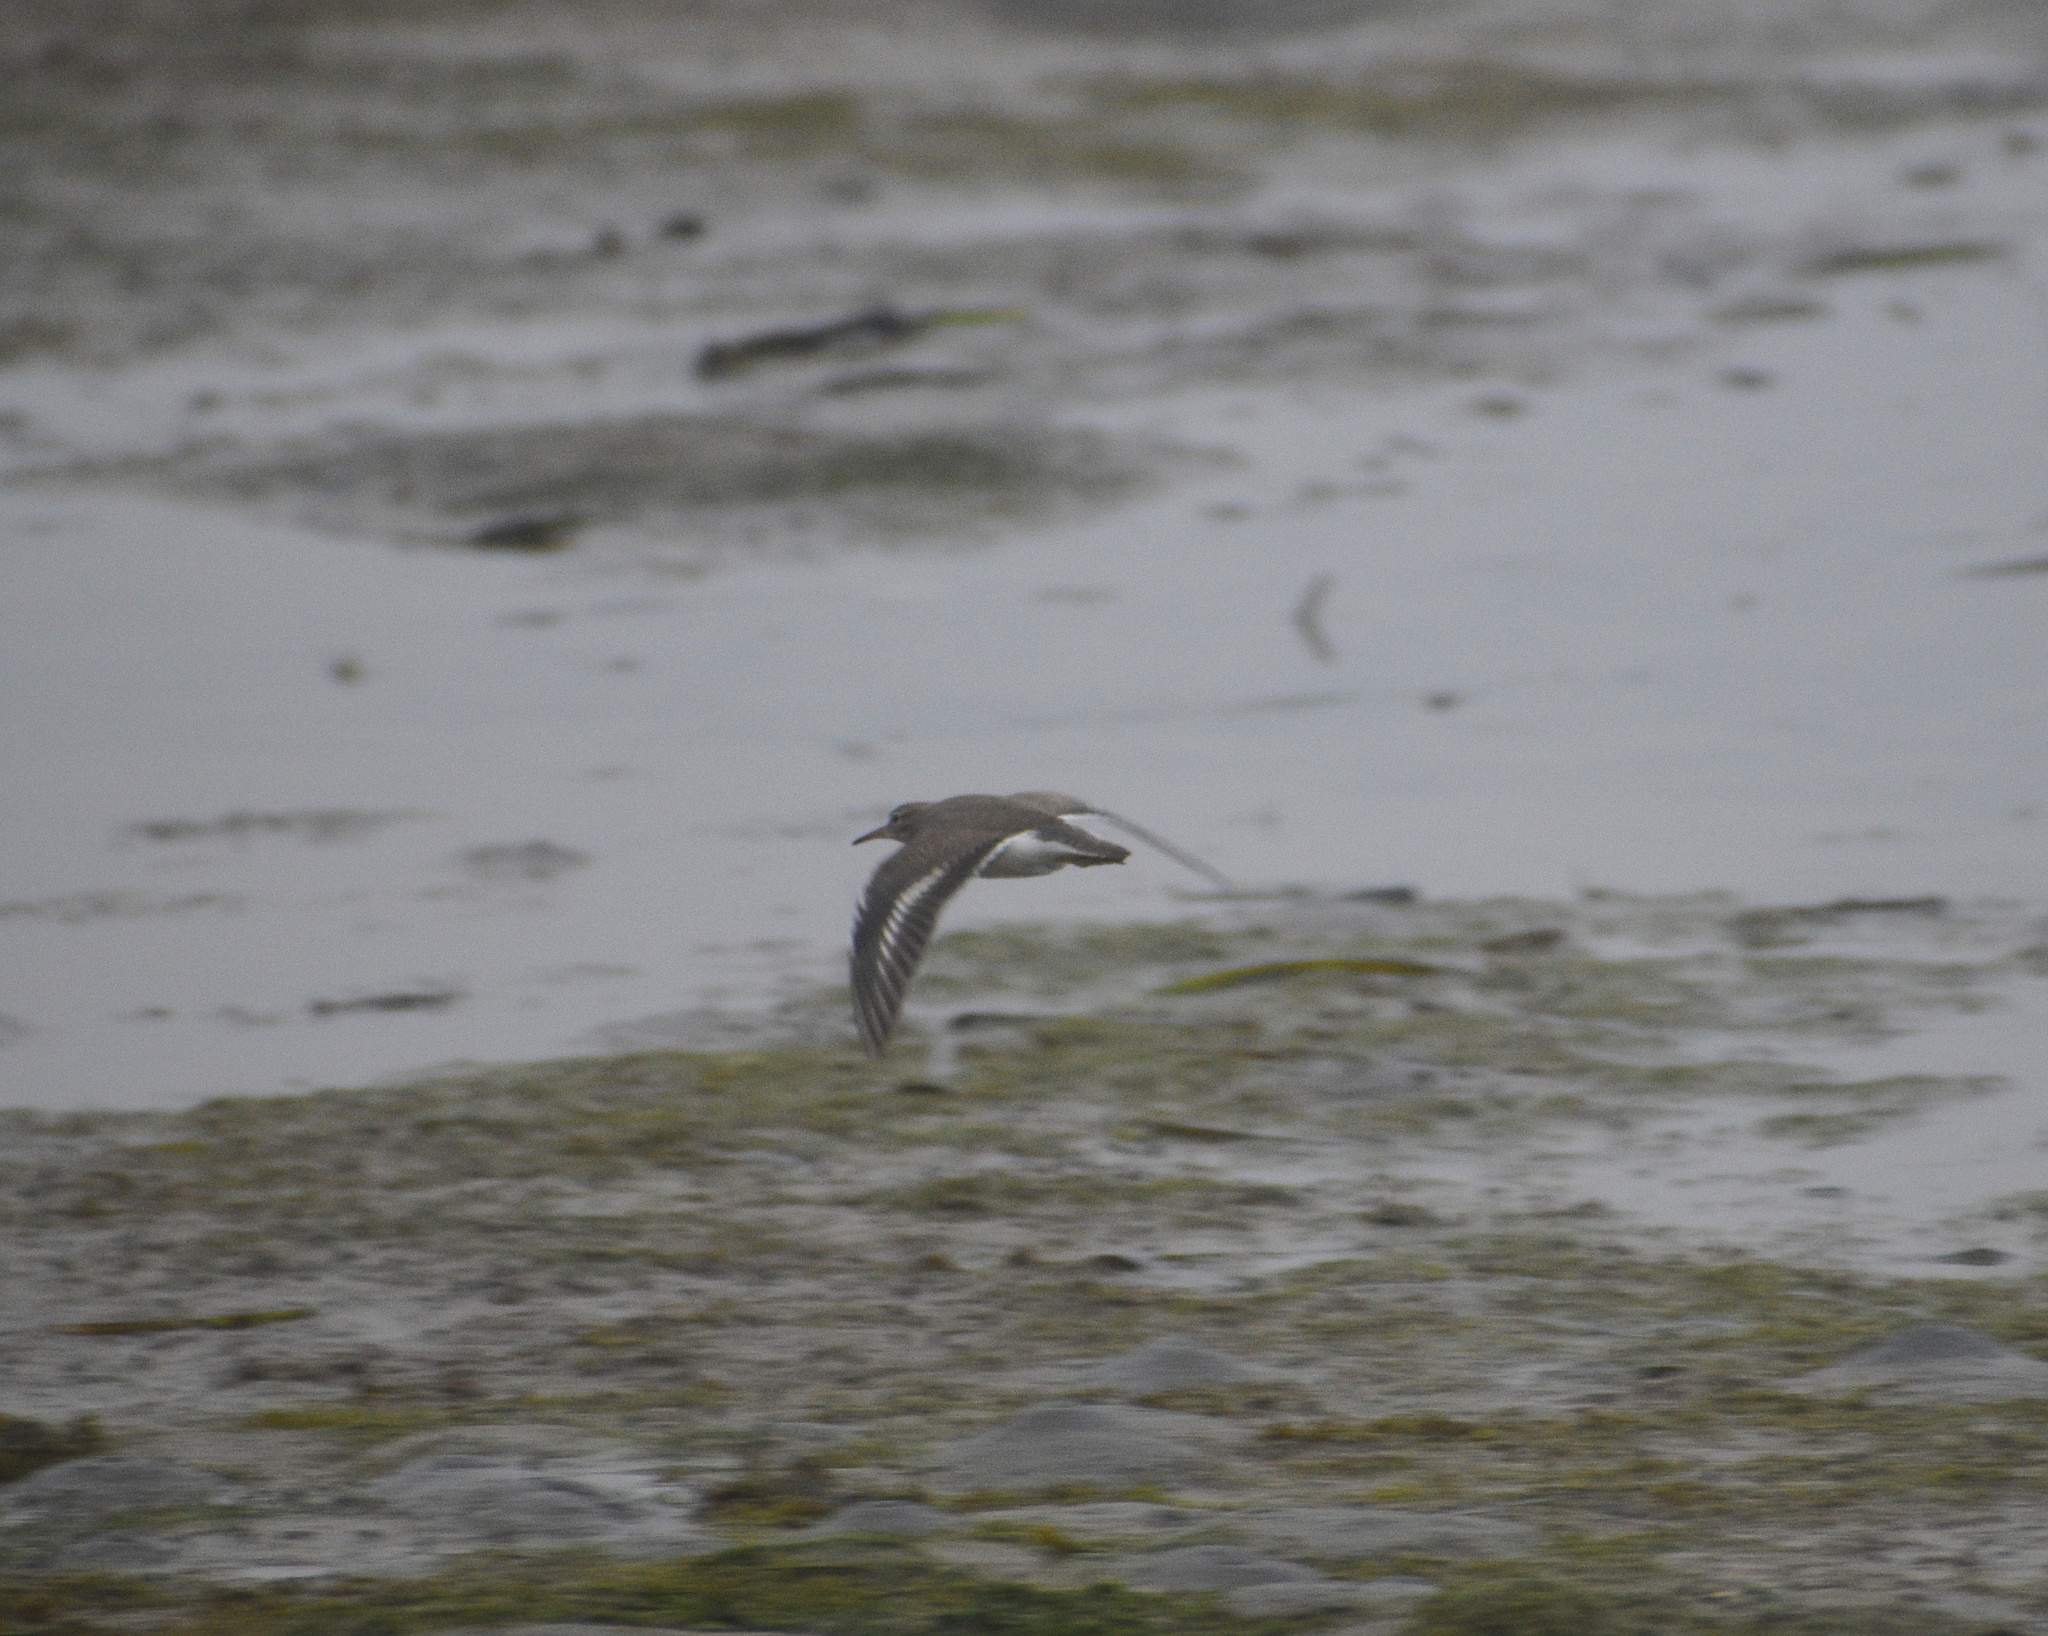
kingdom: Animalia
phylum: Chordata
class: Aves
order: Charadriiformes
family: Scolopacidae
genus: Actitis
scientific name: Actitis macularius
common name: Spotted sandpiper
